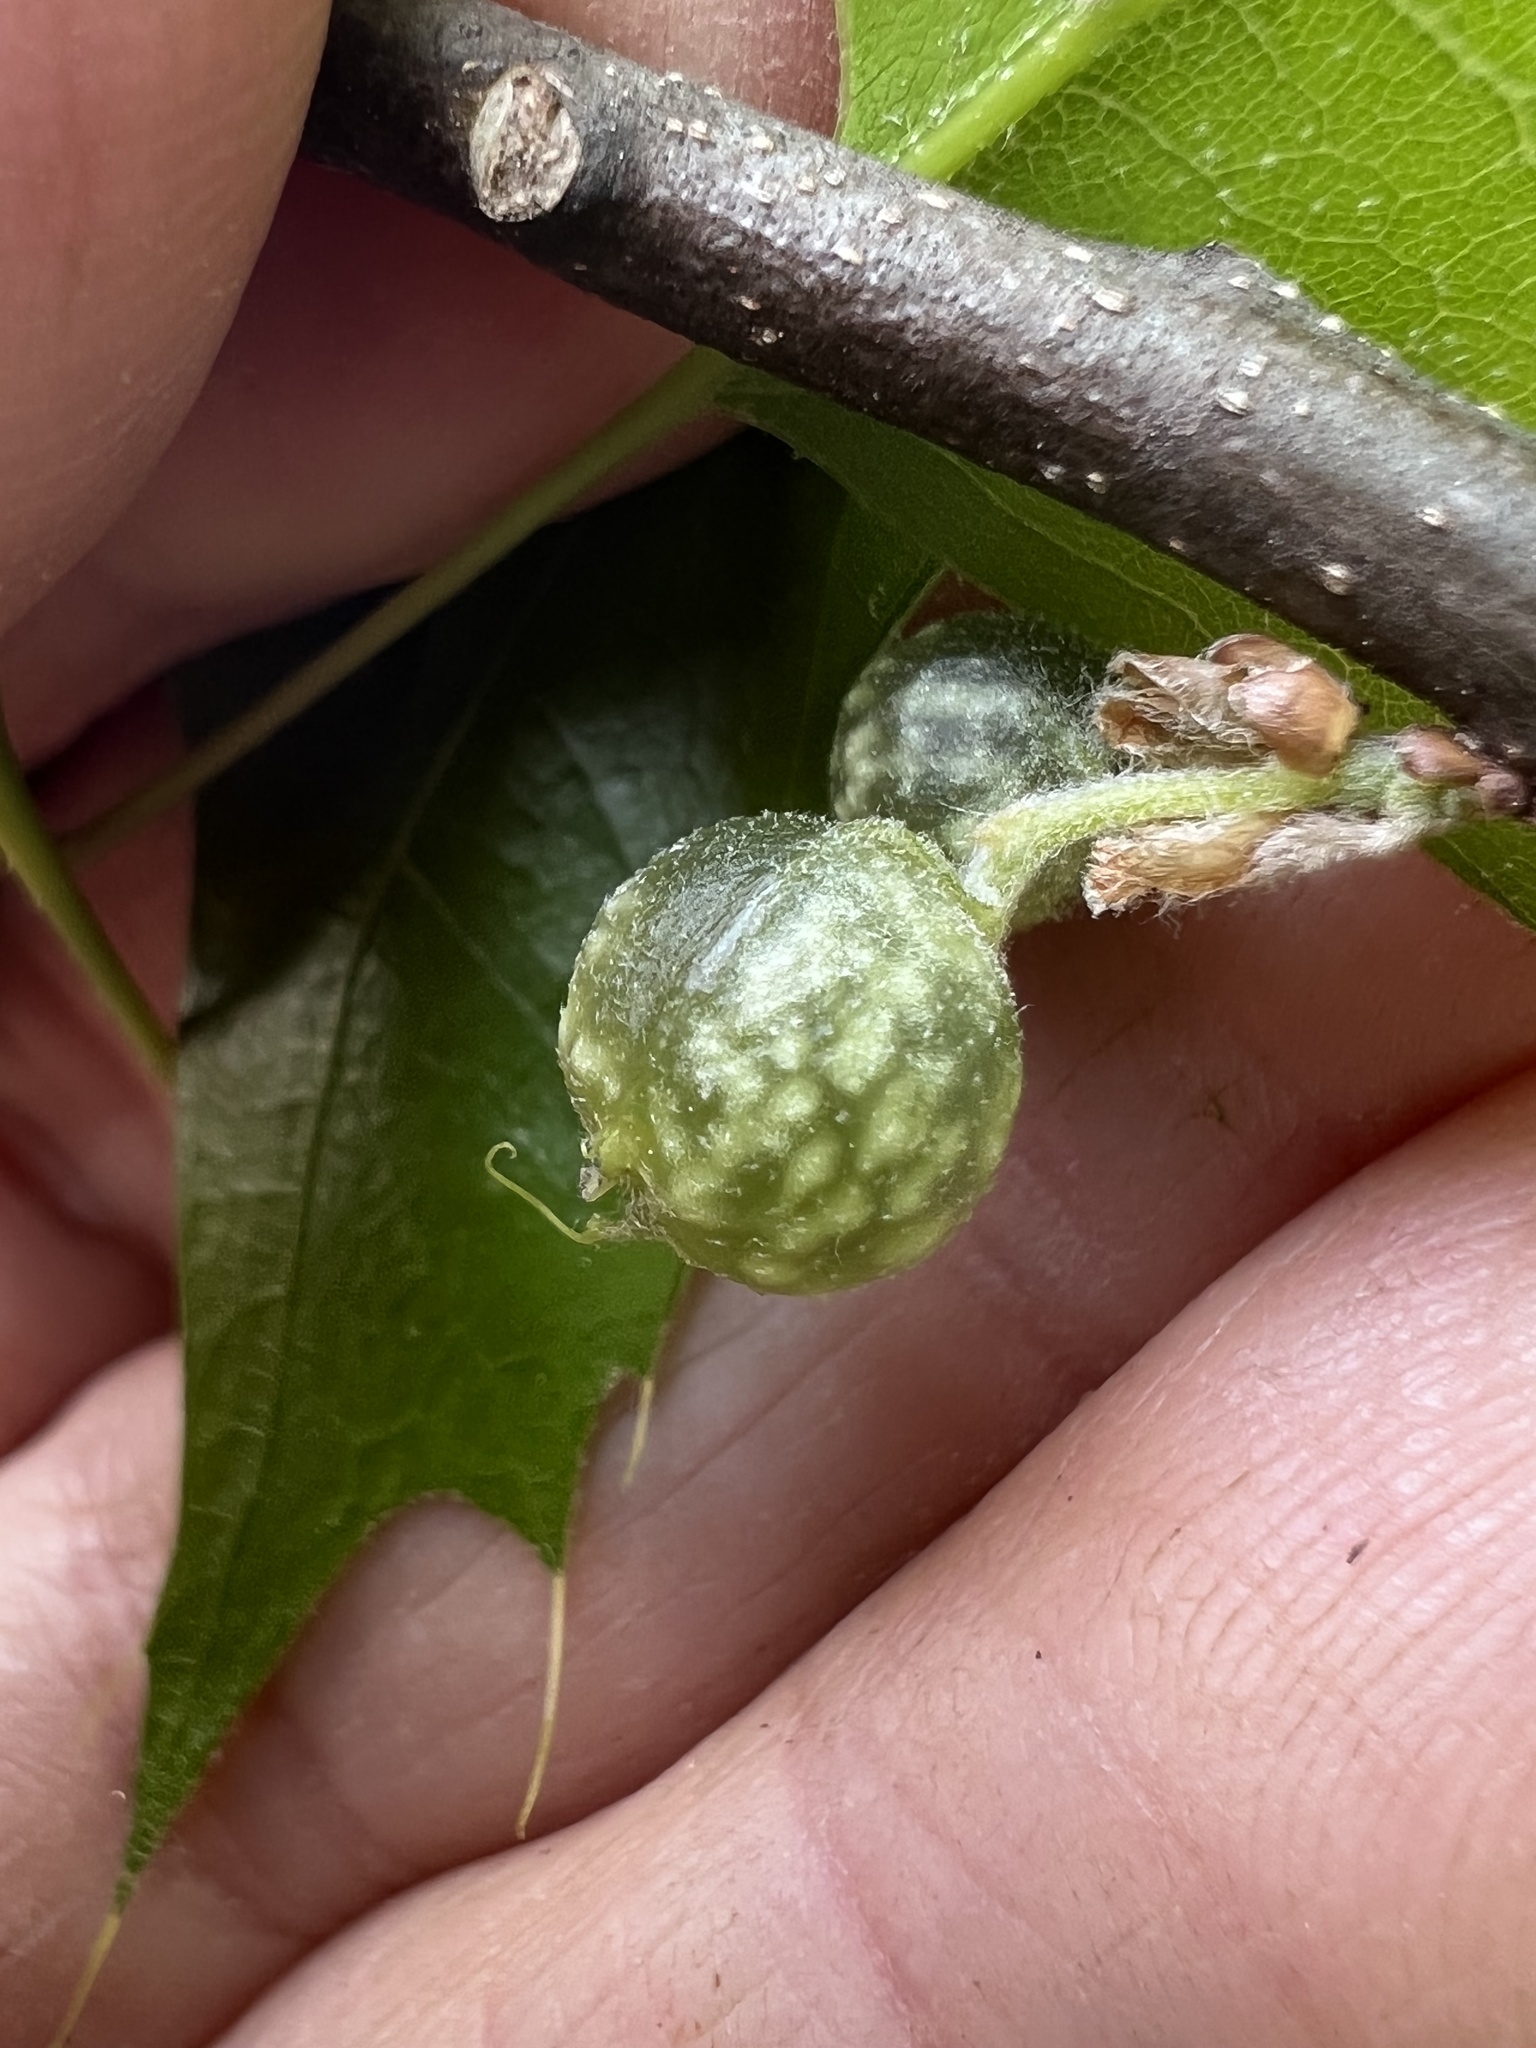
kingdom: Animalia
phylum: Arthropoda
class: Insecta
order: Hymenoptera
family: Cynipidae
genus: Dryocosmus
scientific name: Dryocosmus quercuspalustris
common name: Succulent oak gall wasp
